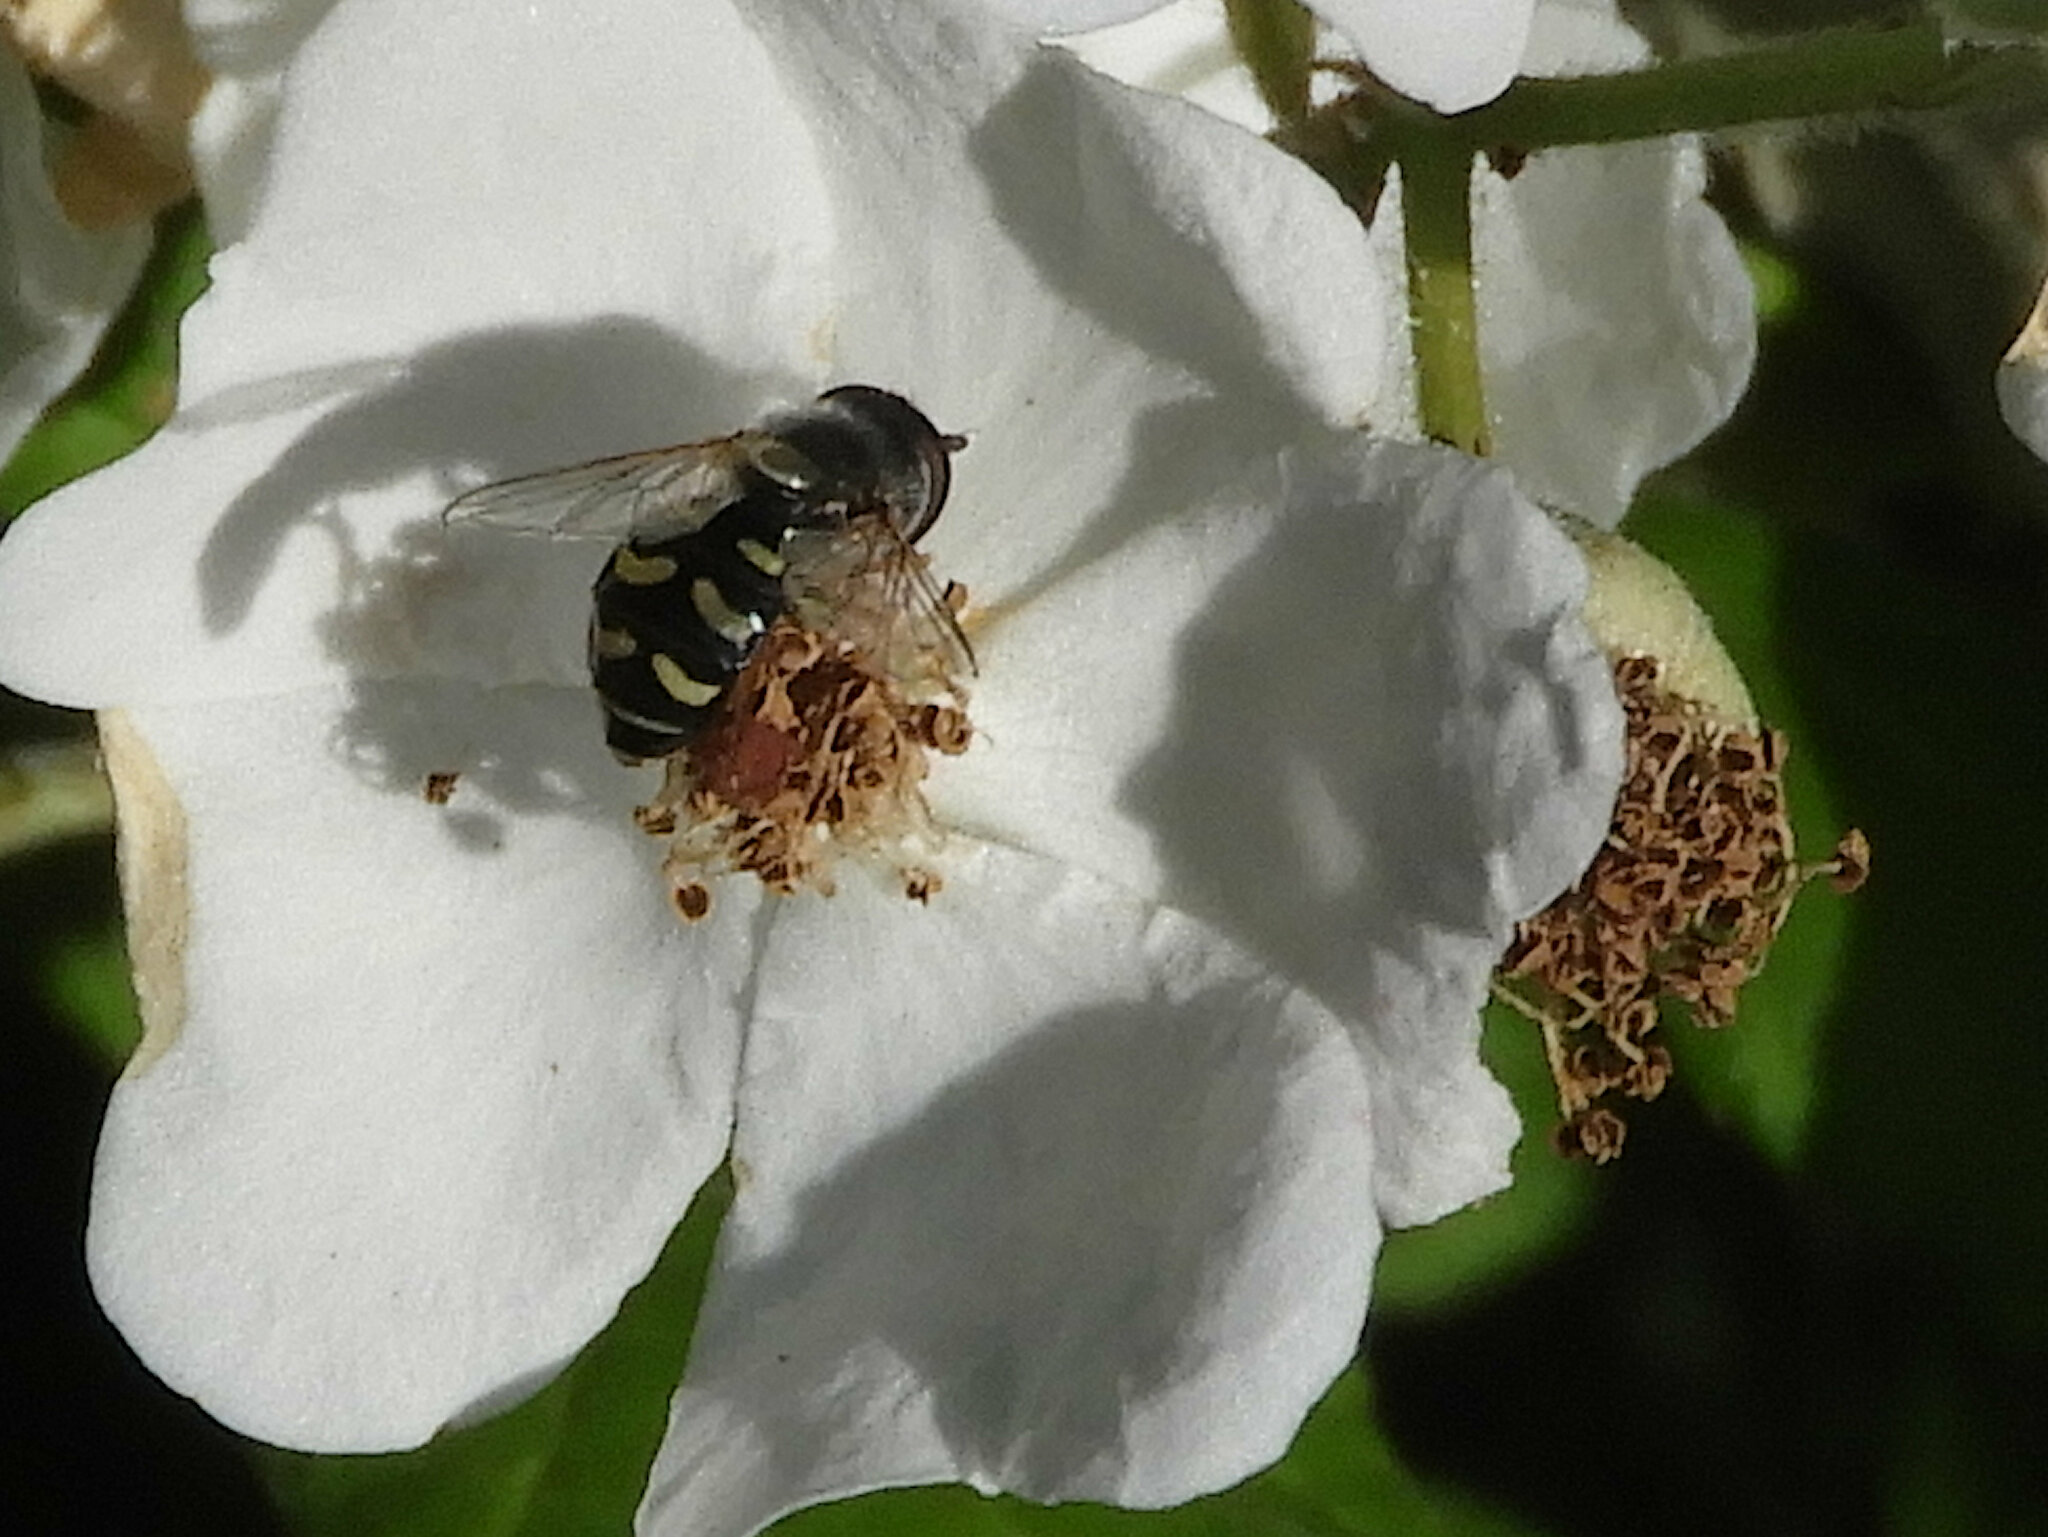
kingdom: Animalia
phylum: Arthropoda
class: Insecta
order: Diptera
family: Syrphidae
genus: Eupeodes
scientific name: Eupeodes volucris
